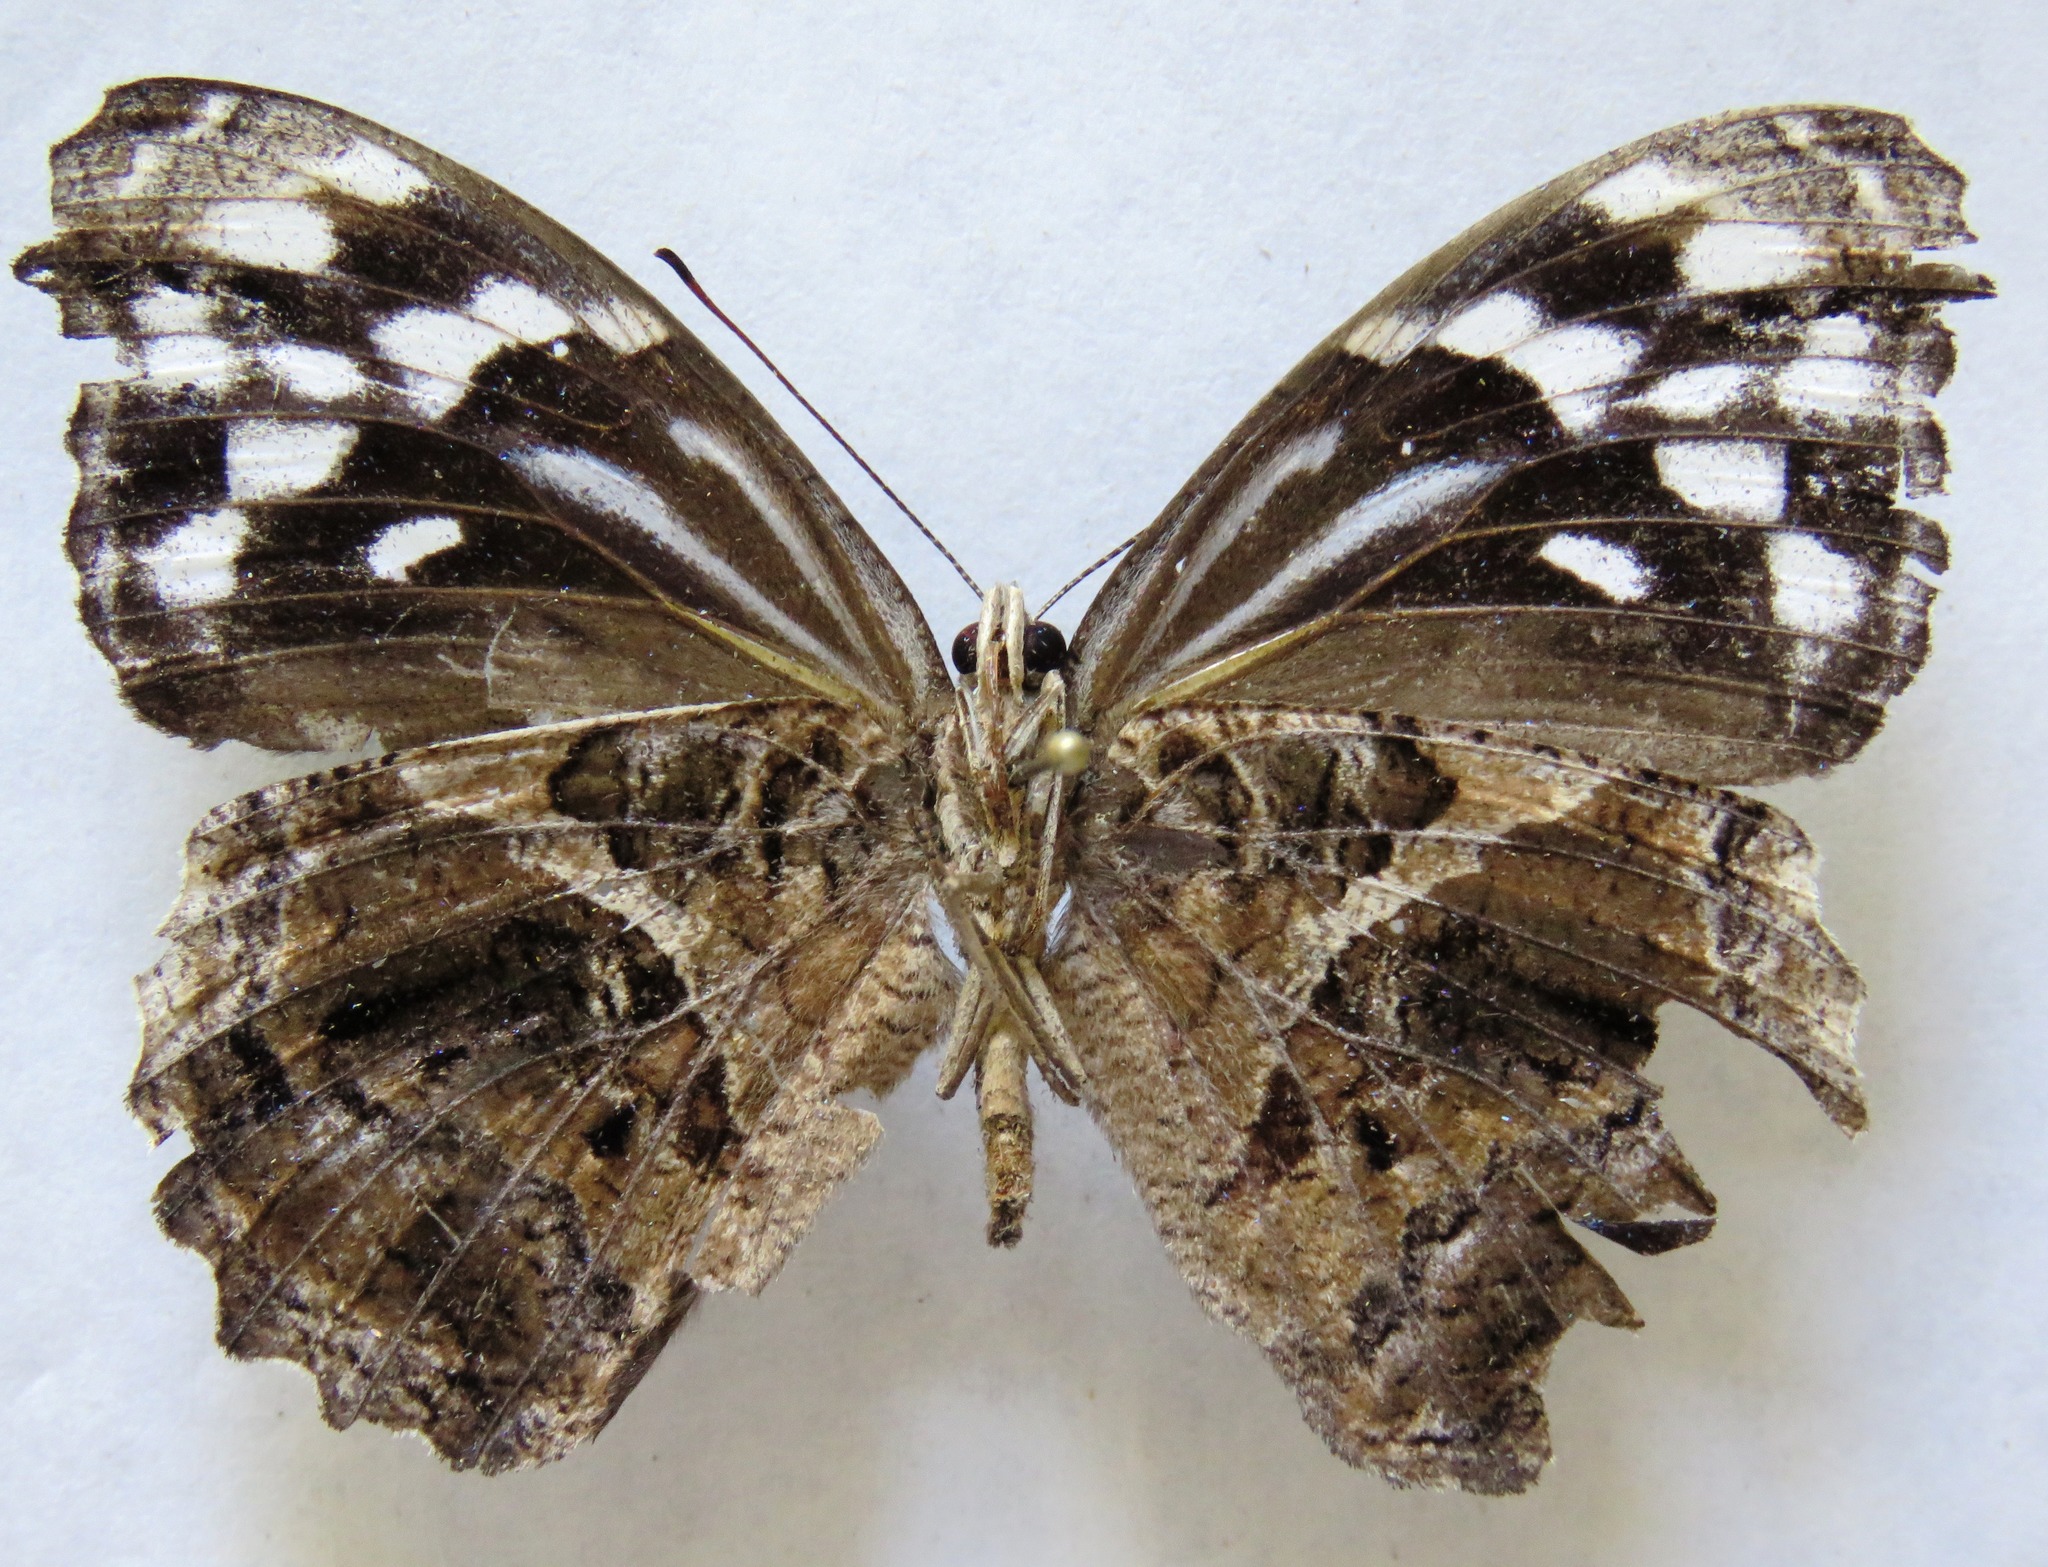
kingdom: Animalia
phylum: Arthropoda
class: Insecta
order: Lepidoptera
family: Nymphalidae
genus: Myscelia
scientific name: Myscelia ethusa
